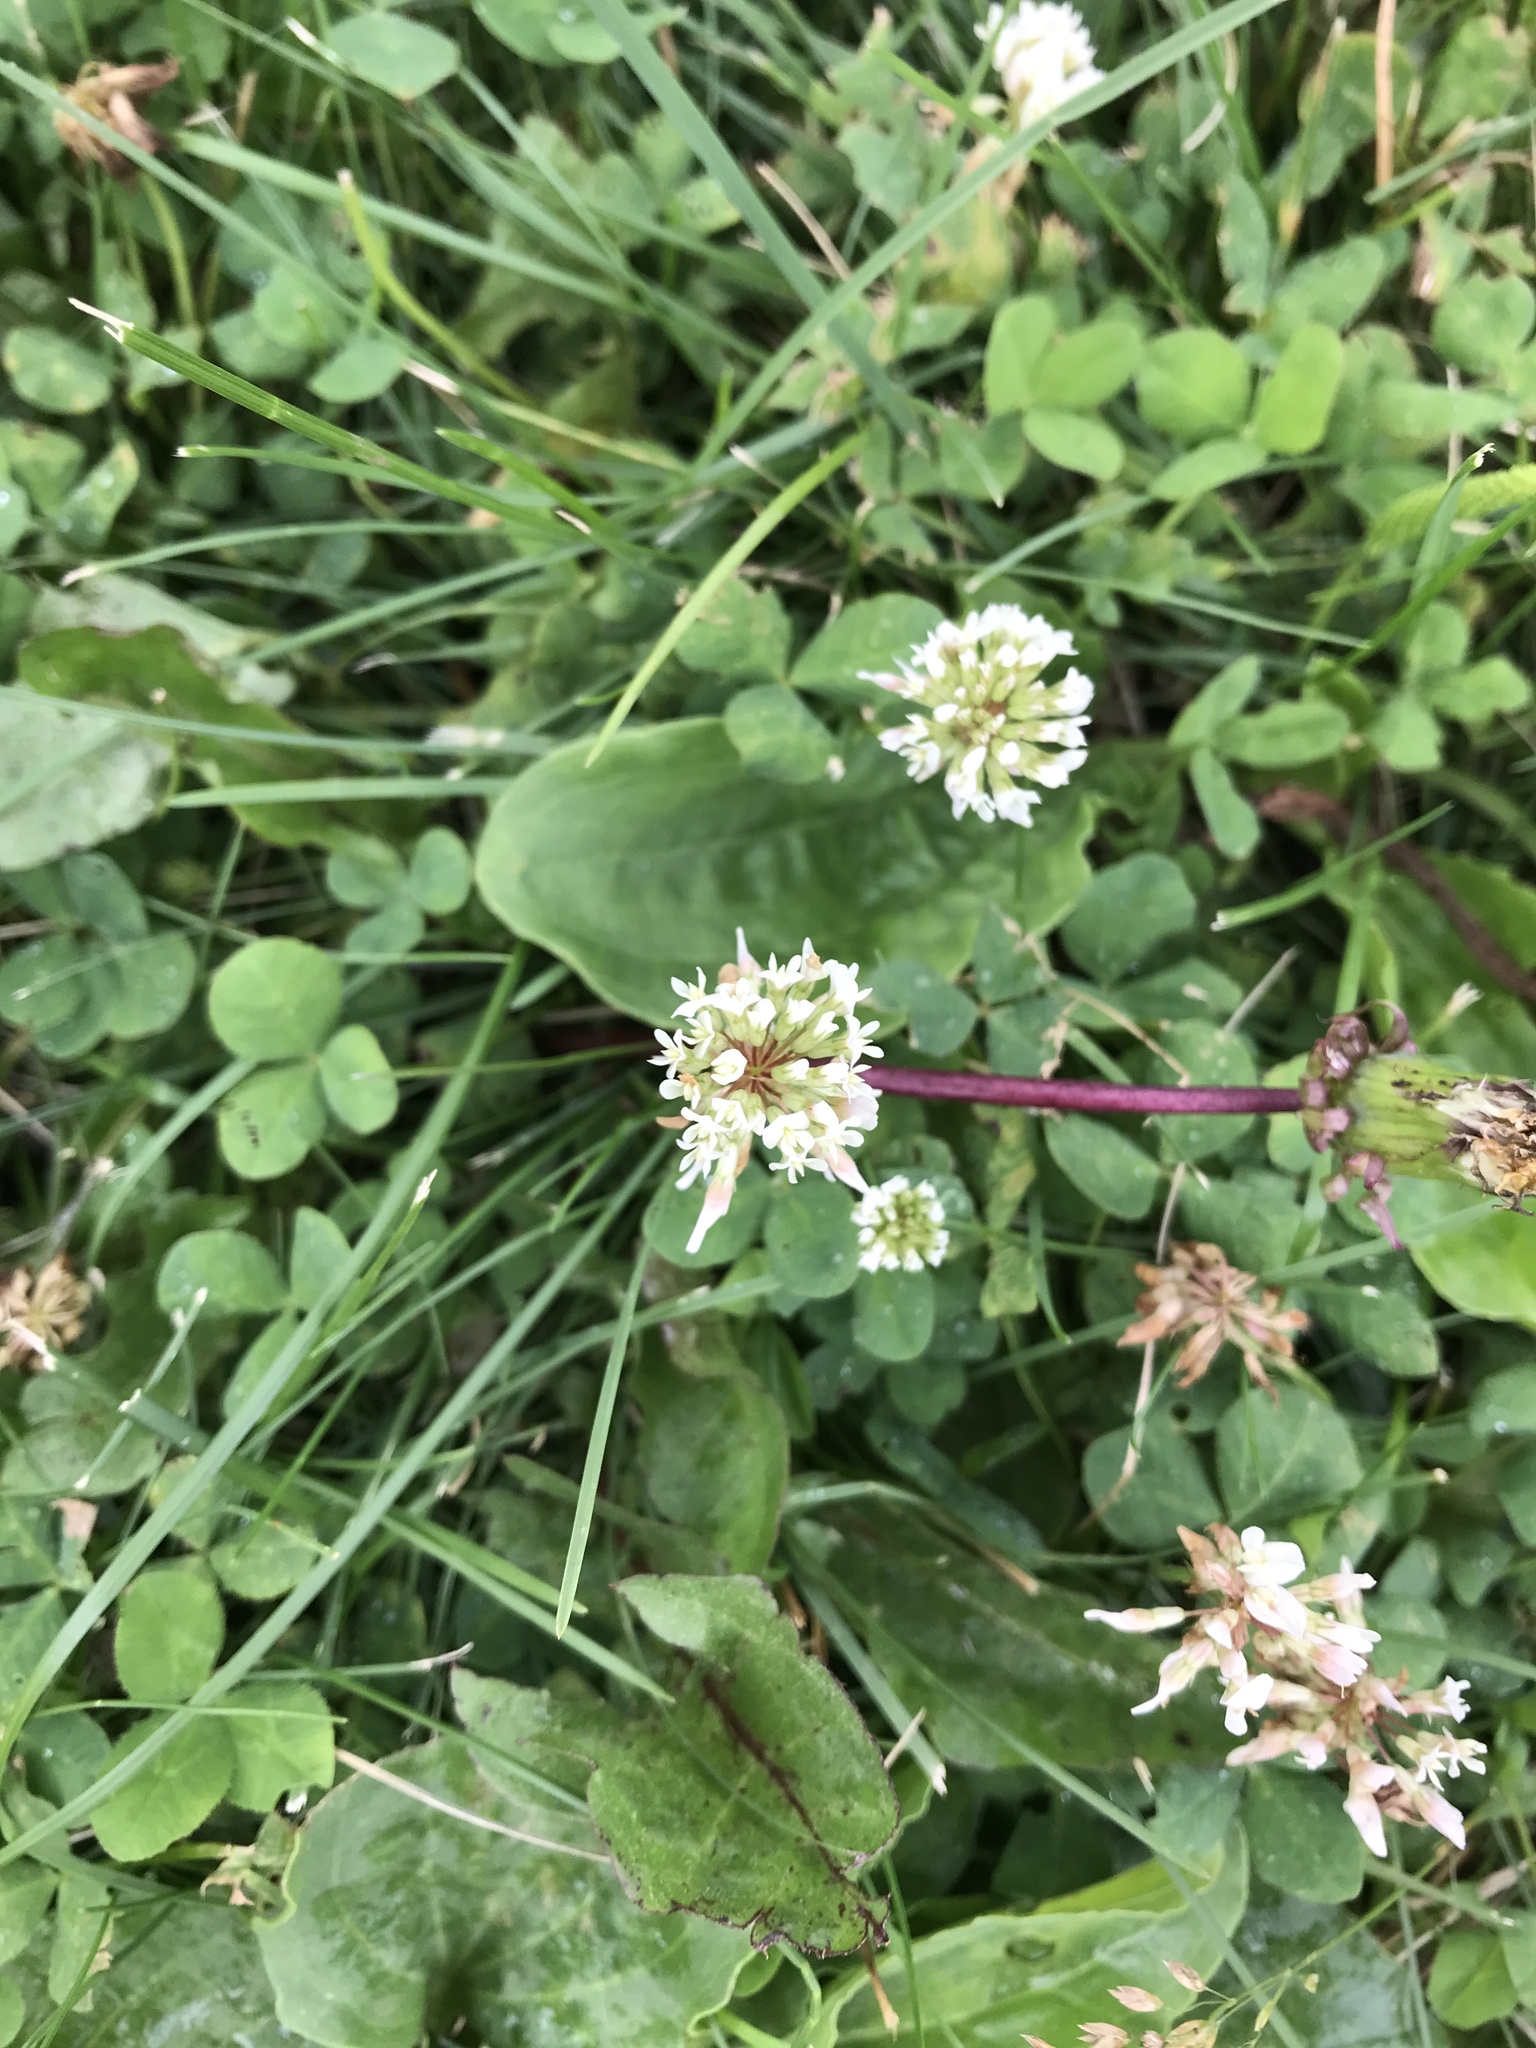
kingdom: Plantae
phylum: Tracheophyta
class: Magnoliopsida
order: Fabales
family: Fabaceae
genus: Trifolium
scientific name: Trifolium repens
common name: White clover
